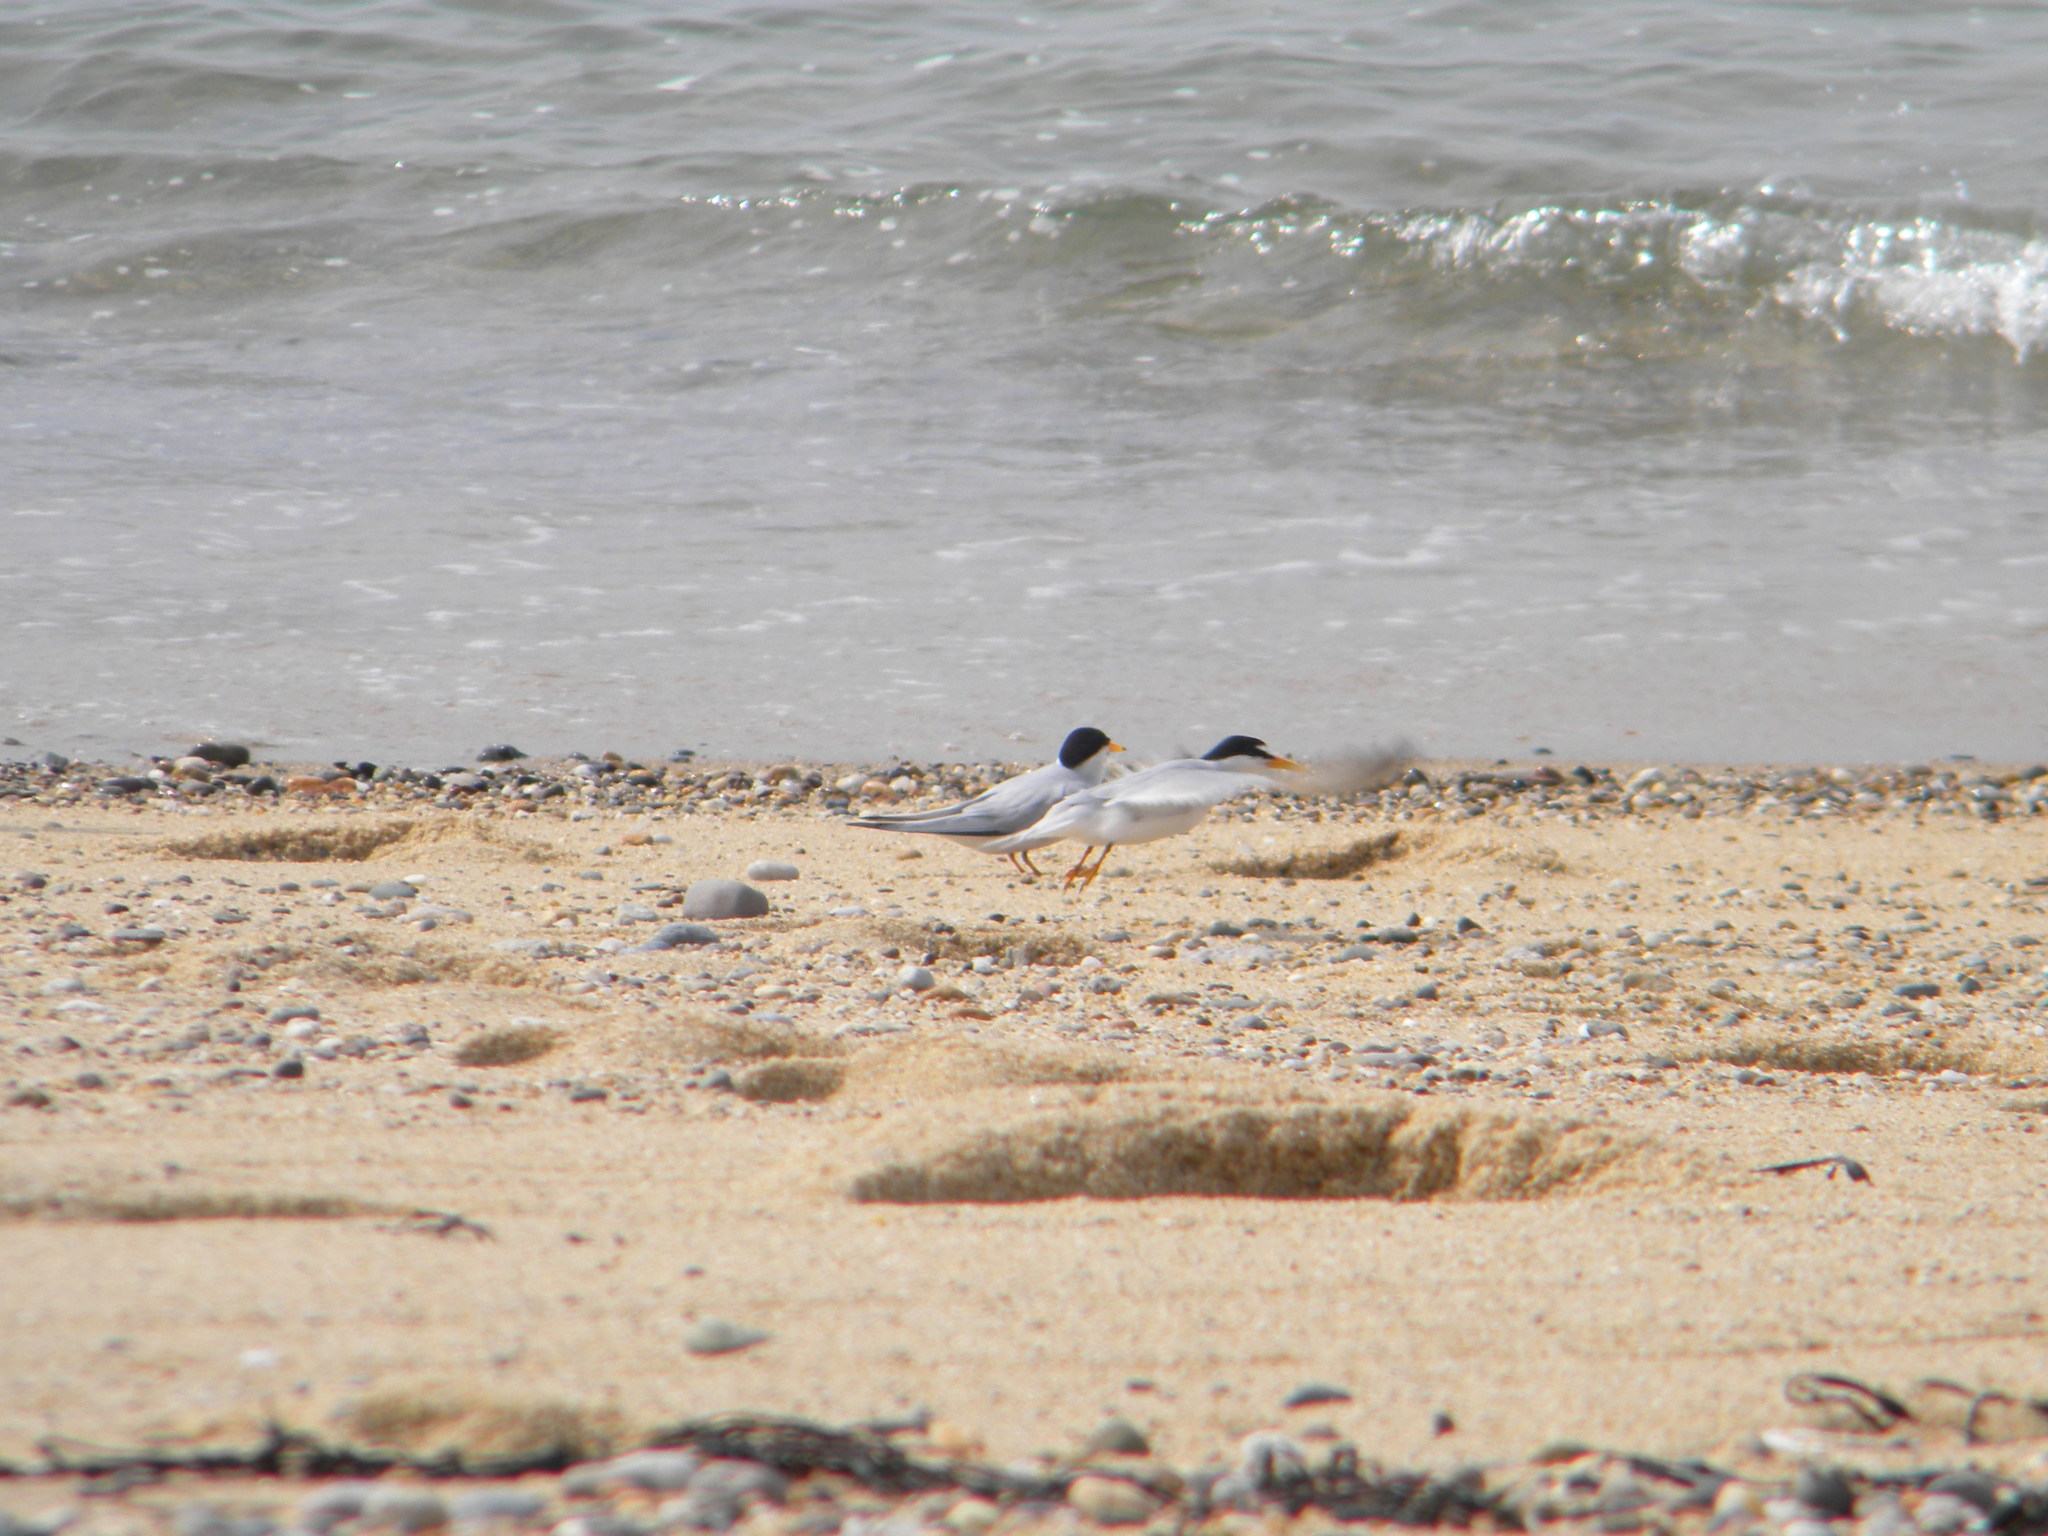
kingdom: Animalia
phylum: Chordata
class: Aves
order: Charadriiformes
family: Laridae
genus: Sternula
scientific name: Sternula antillarum
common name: Least tern
